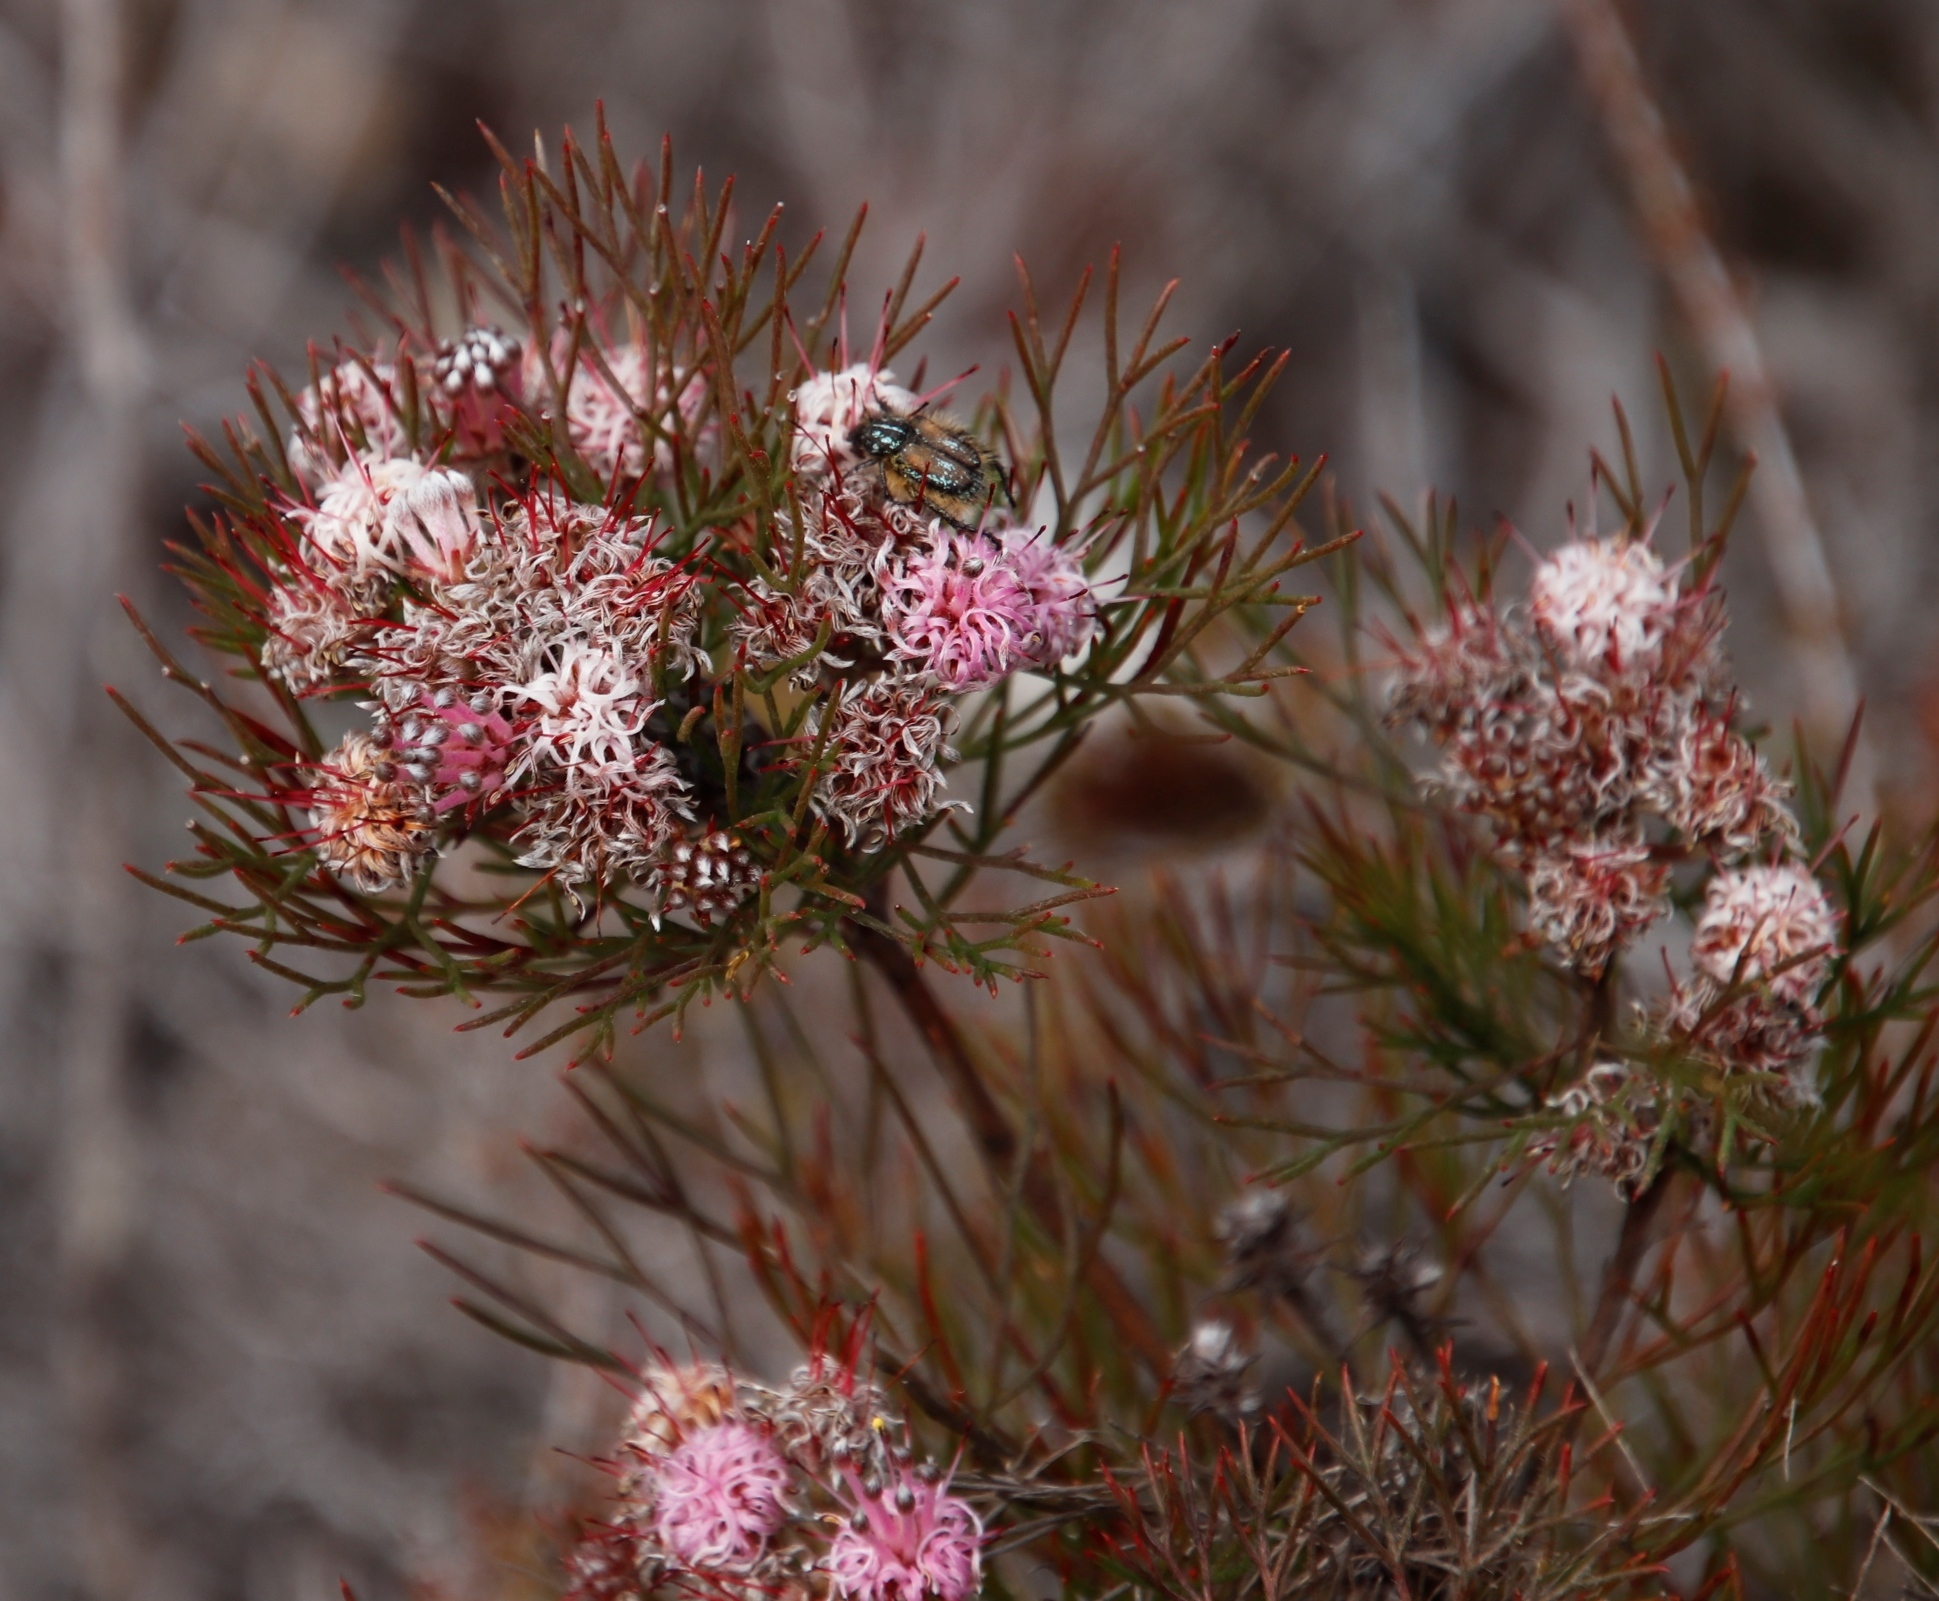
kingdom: Plantae
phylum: Tracheophyta
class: Magnoliopsida
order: Proteales
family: Proteaceae
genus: Serruria
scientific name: Serruria fasciflora
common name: Common pin spiderhead
